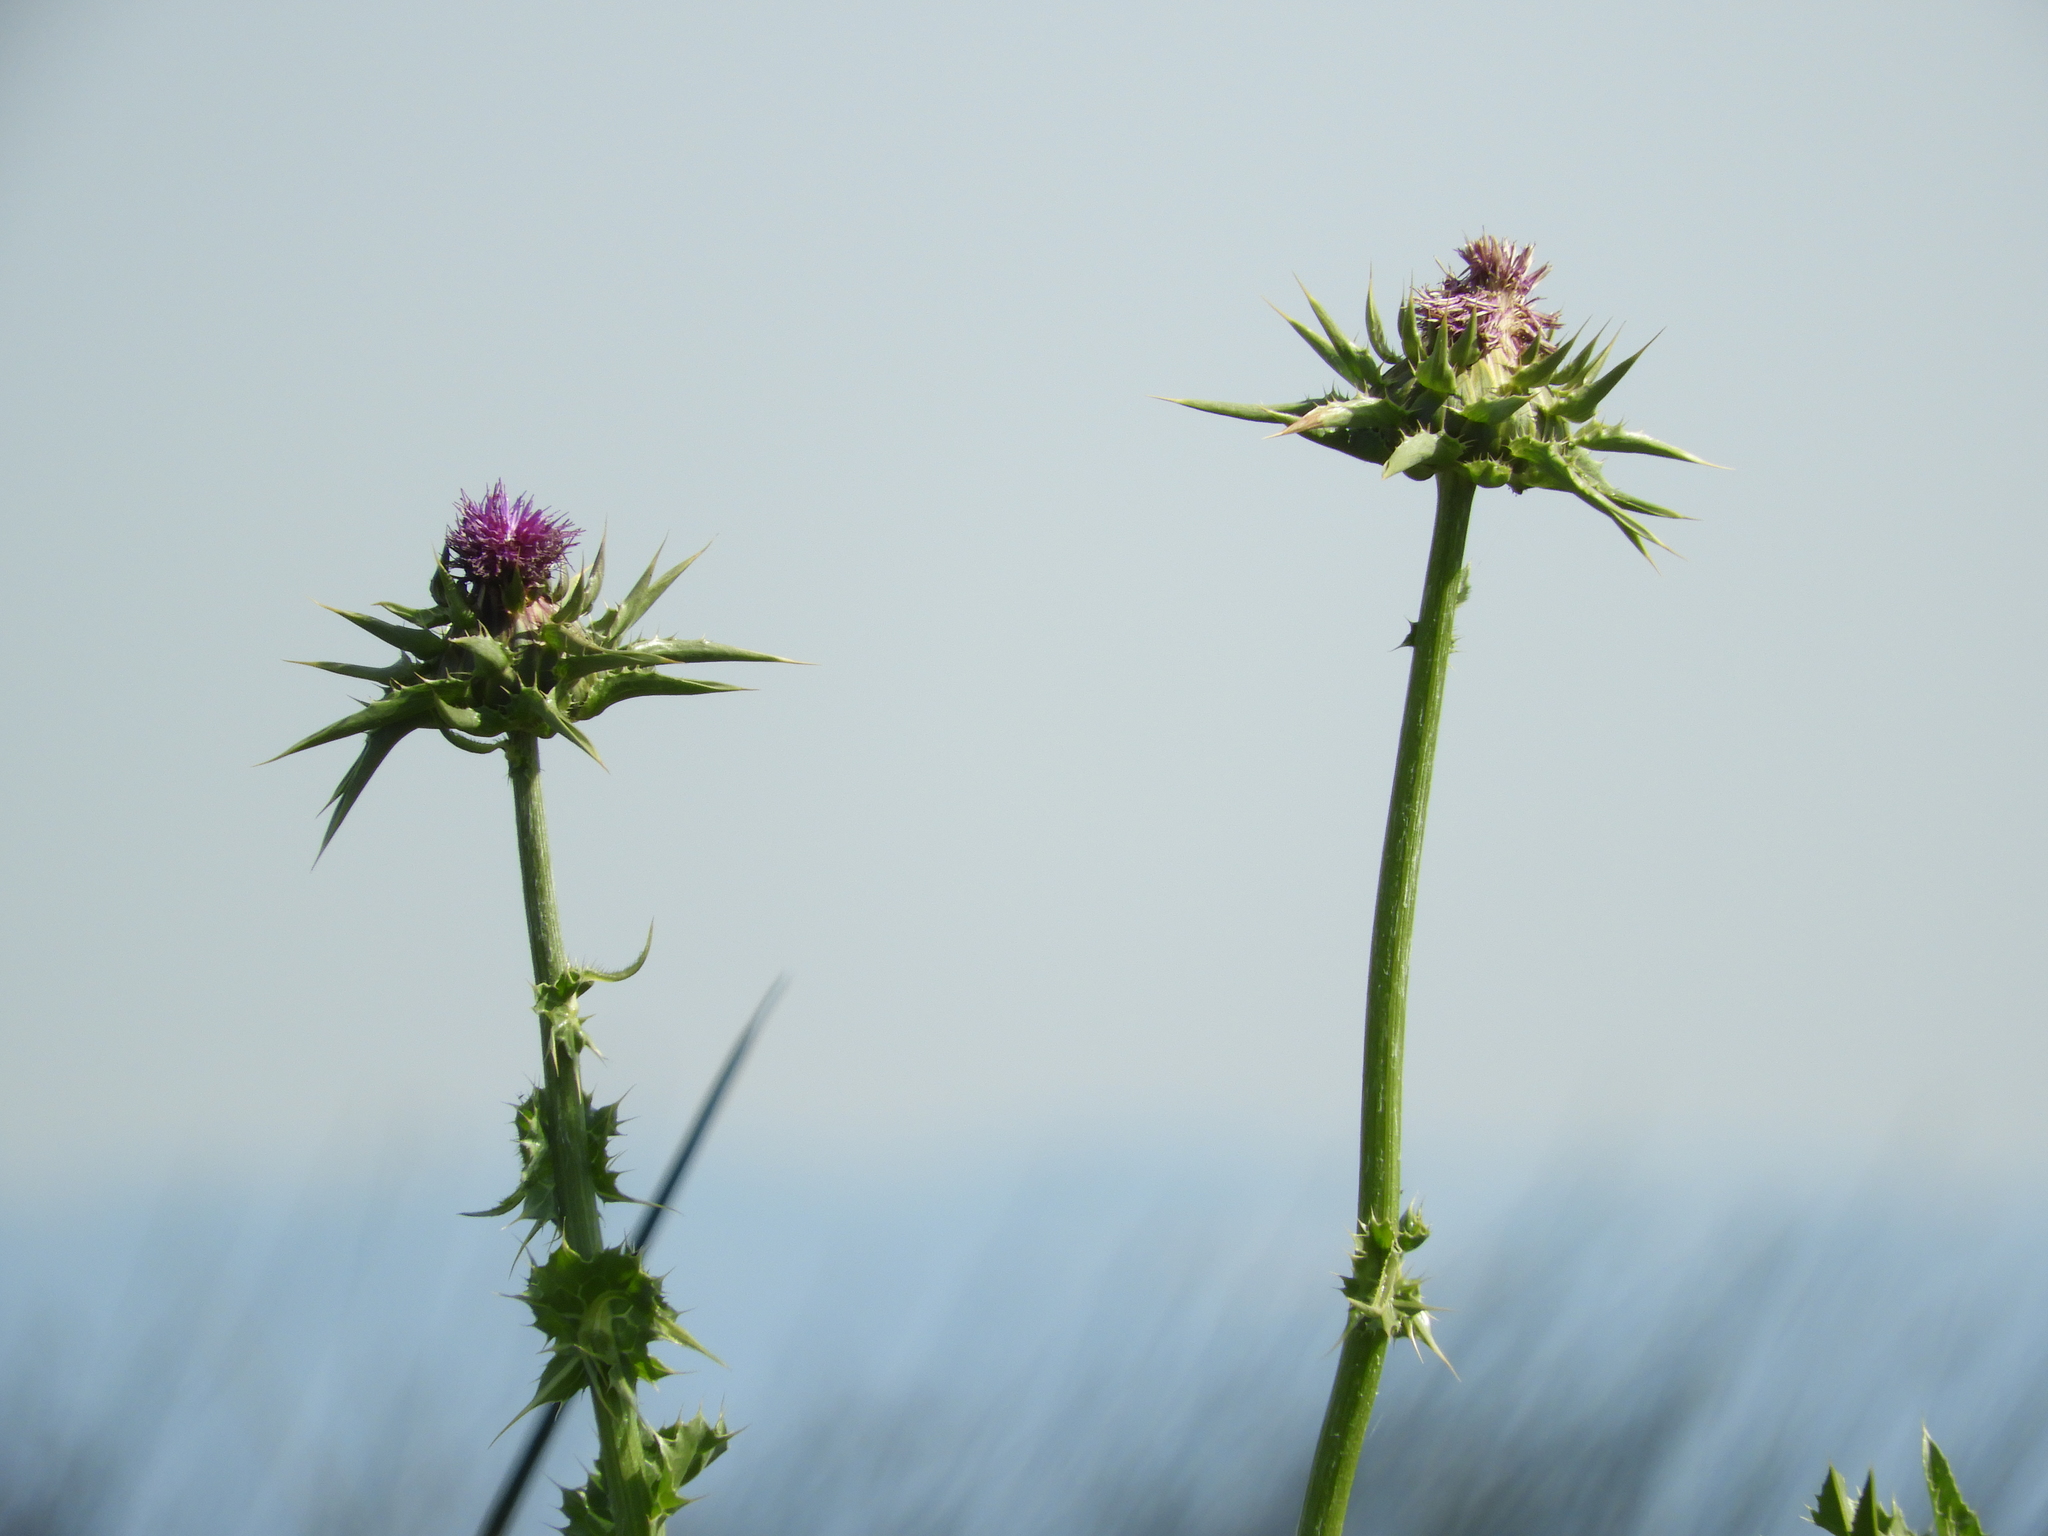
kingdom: Plantae
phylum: Tracheophyta
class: Magnoliopsida
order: Asterales
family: Asteraceae
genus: Silybum
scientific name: Silybum marianum
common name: Milk thistle
